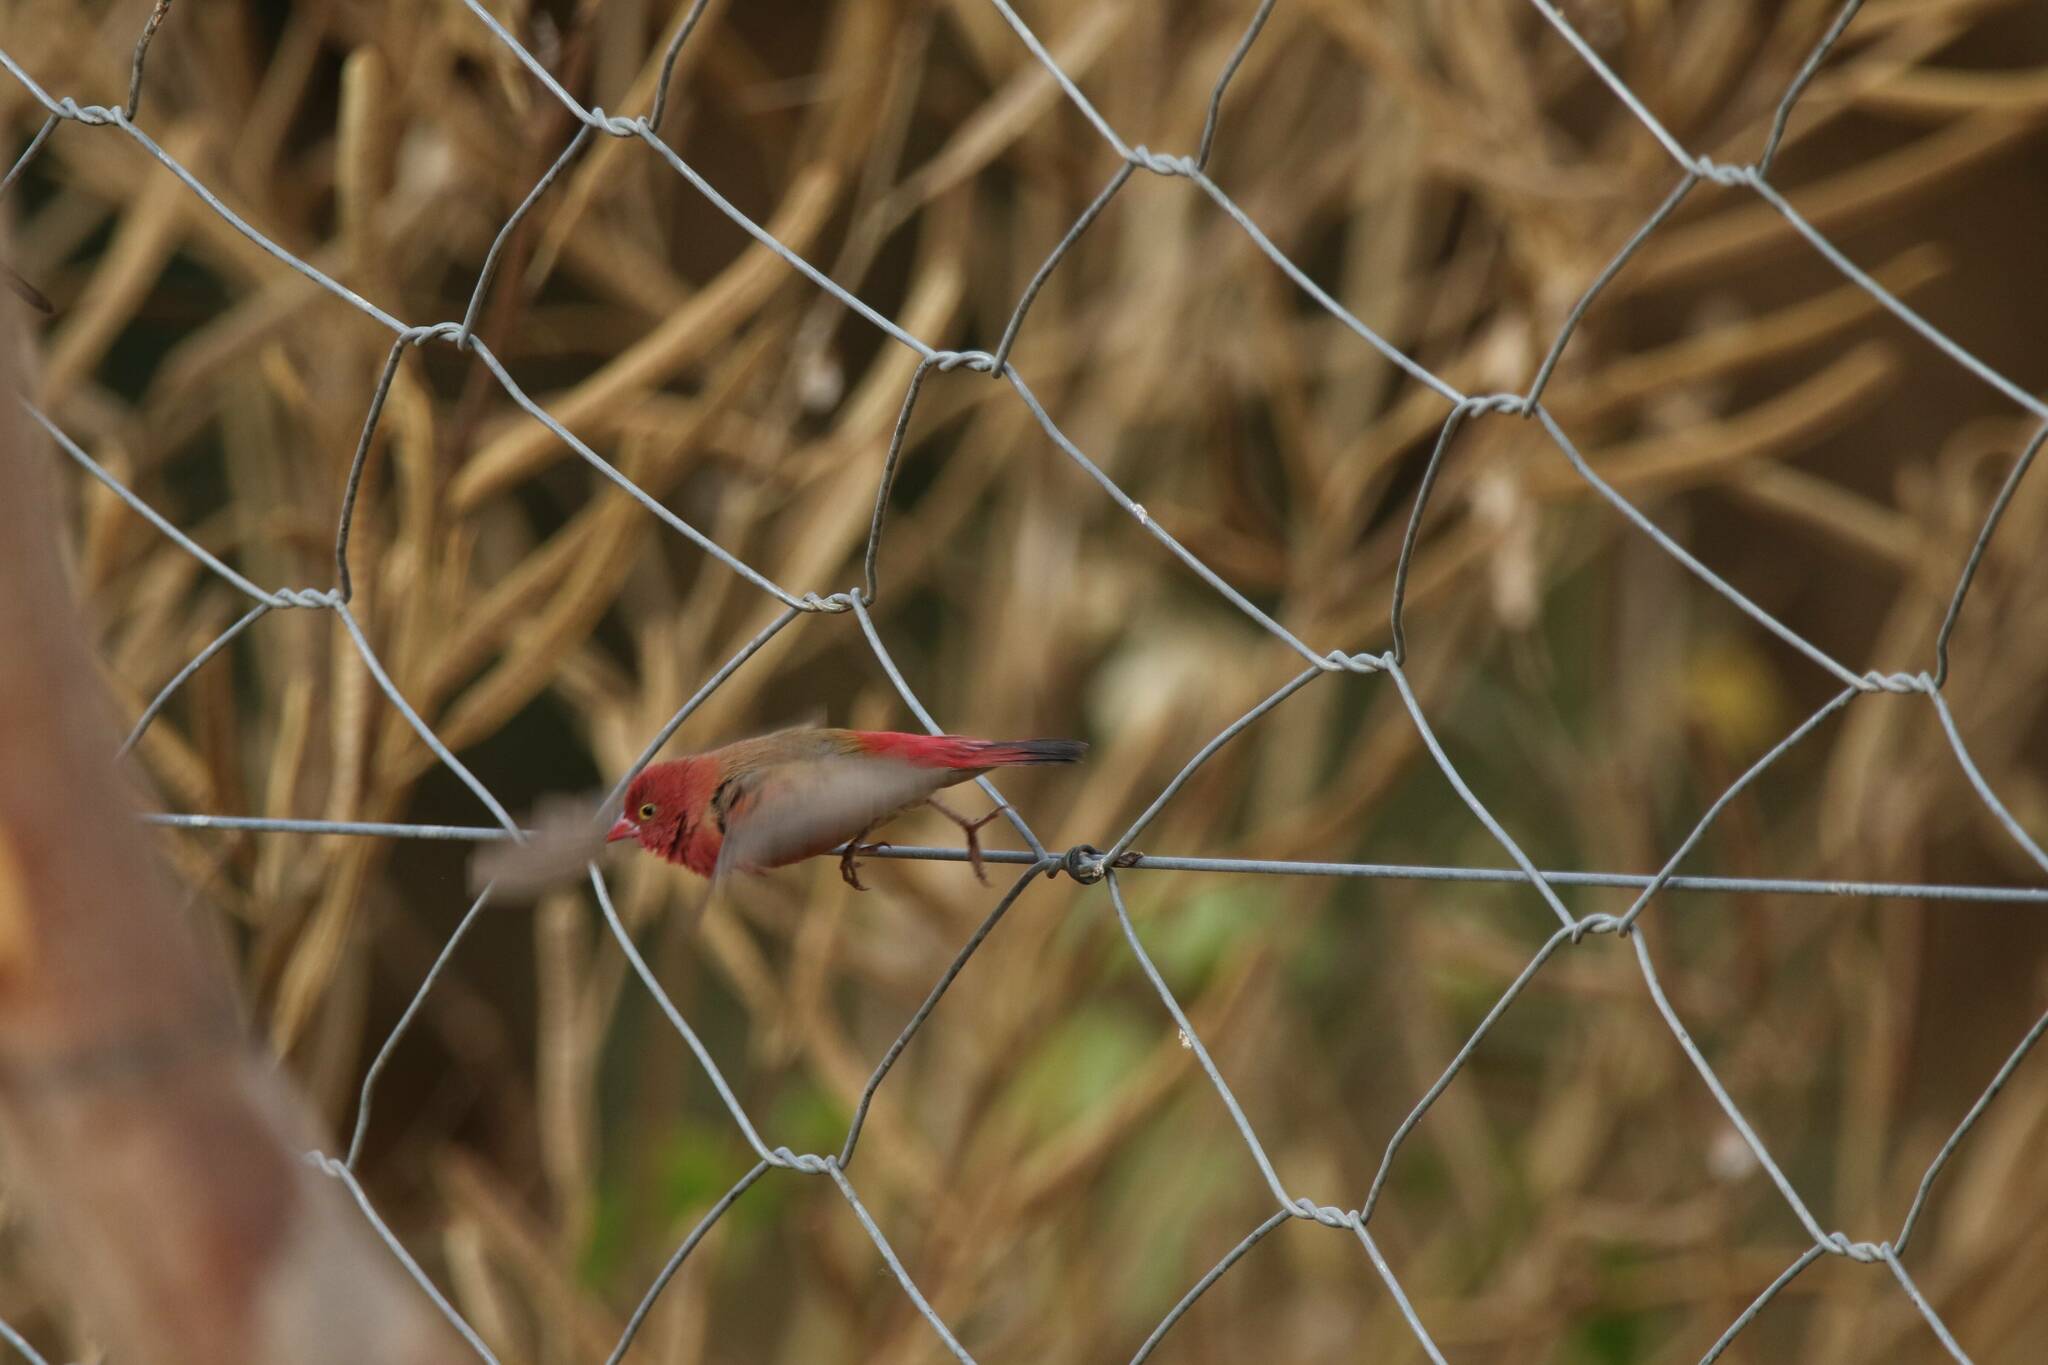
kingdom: Animalia
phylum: Chordata
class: Aves
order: Passeriformes
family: Estrildidae
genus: Lagonosticta
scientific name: Lagonosticta senegala
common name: Red-billed firefinch
